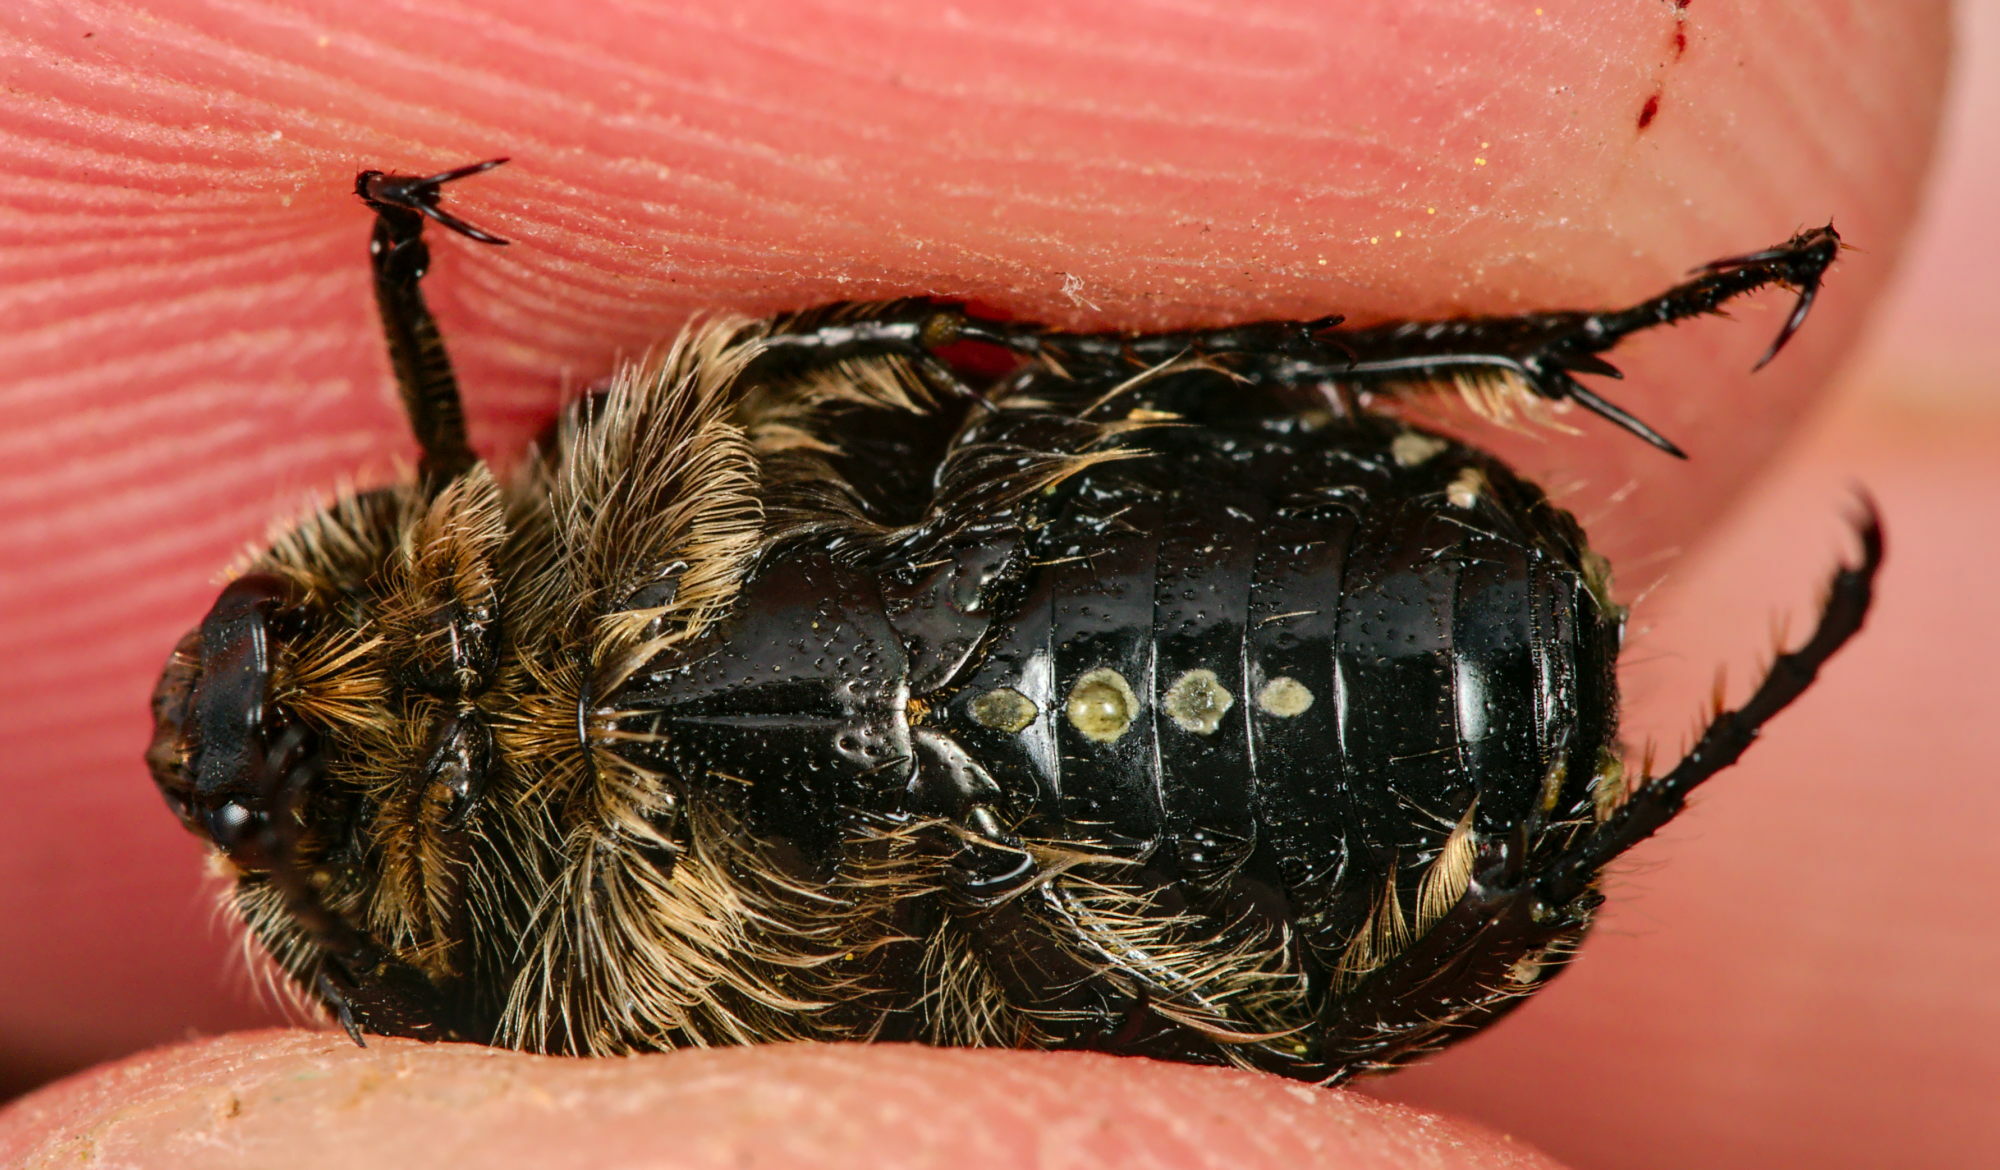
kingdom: Animalia
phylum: Arthropoda
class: Insecta
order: Coleoptera
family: Scarabaeidae
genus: Oxythyrea
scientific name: Oxythyrea funesta
